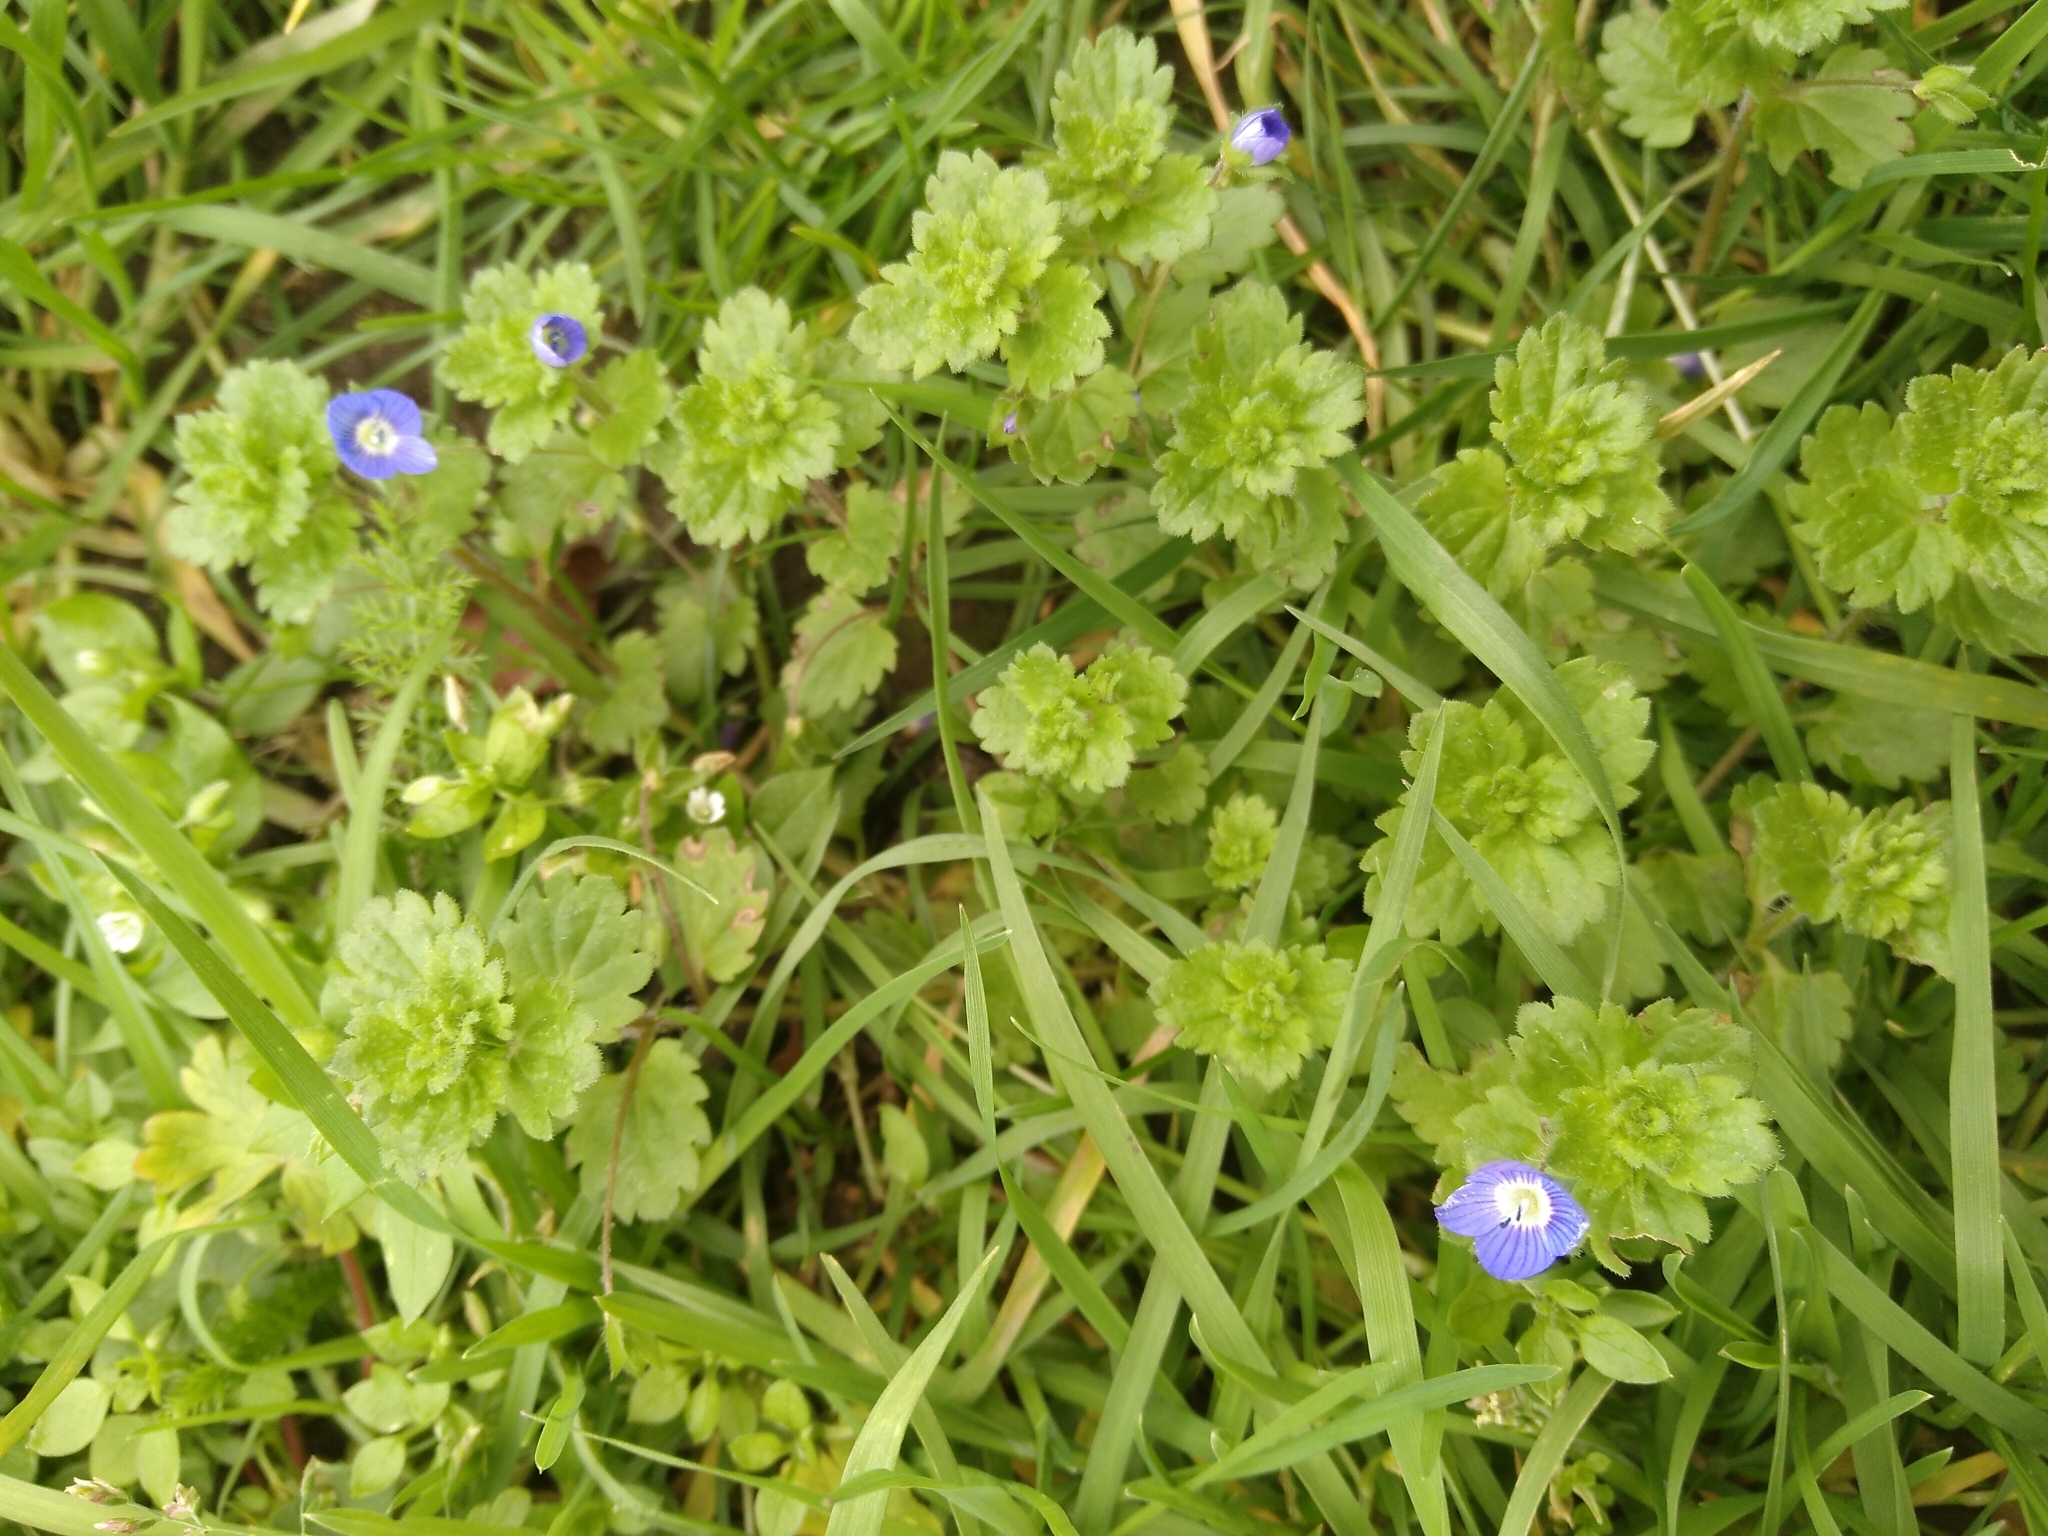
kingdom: Plantae
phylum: Tracheophyta
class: Magnoliopsida
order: Lamiales
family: Plantaginaceae
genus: Veronica
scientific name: Veronica persica
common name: Common field-speedwell
